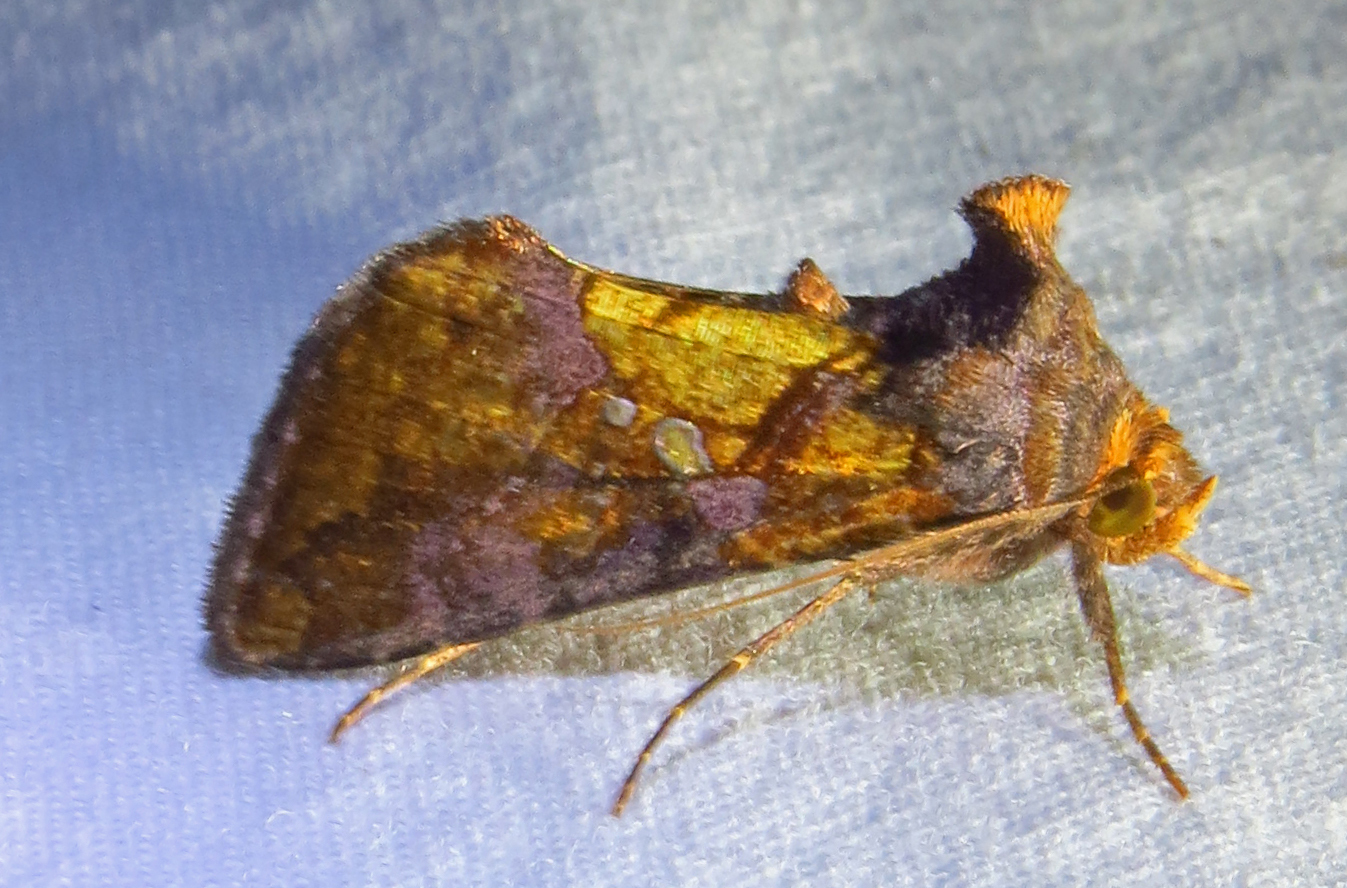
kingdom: Animalia
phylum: Arthropoda
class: Insecta
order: Lepidoptera
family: Noctuidae
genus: Argyrogramma
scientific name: Argyrogramma verruca
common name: Golden looper moth
